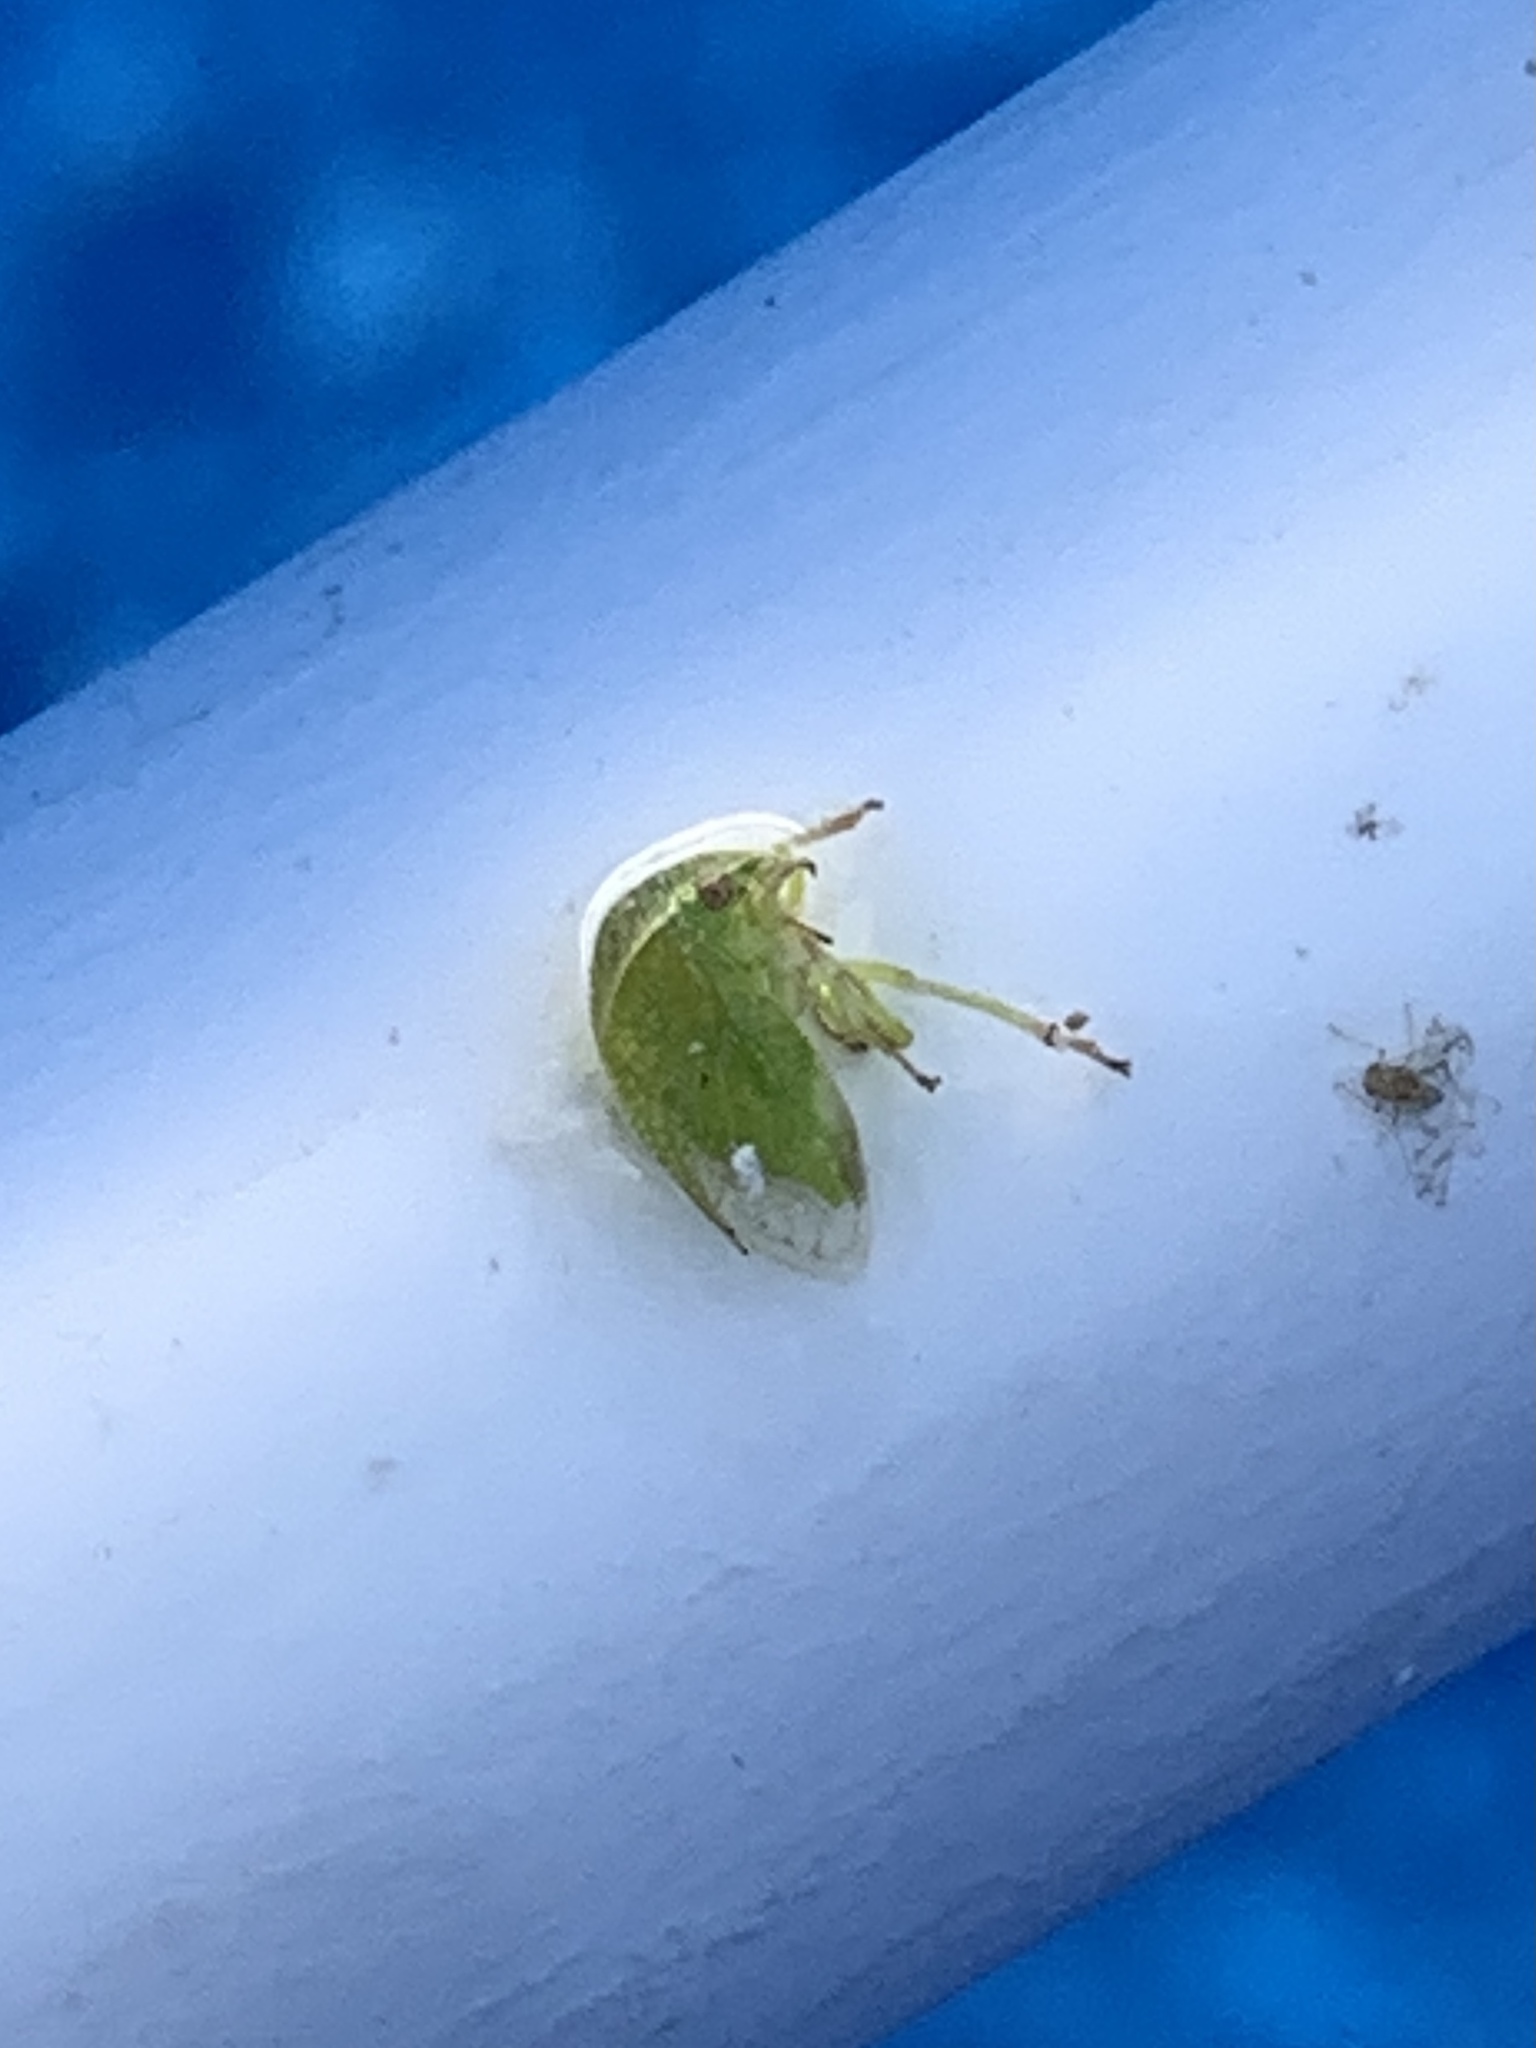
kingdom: Animalia
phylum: Arthropoda
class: Insecta
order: Hemiptera
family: Membracidae
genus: Spissistilus
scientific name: Spissistilus festina
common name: Membracid bug
